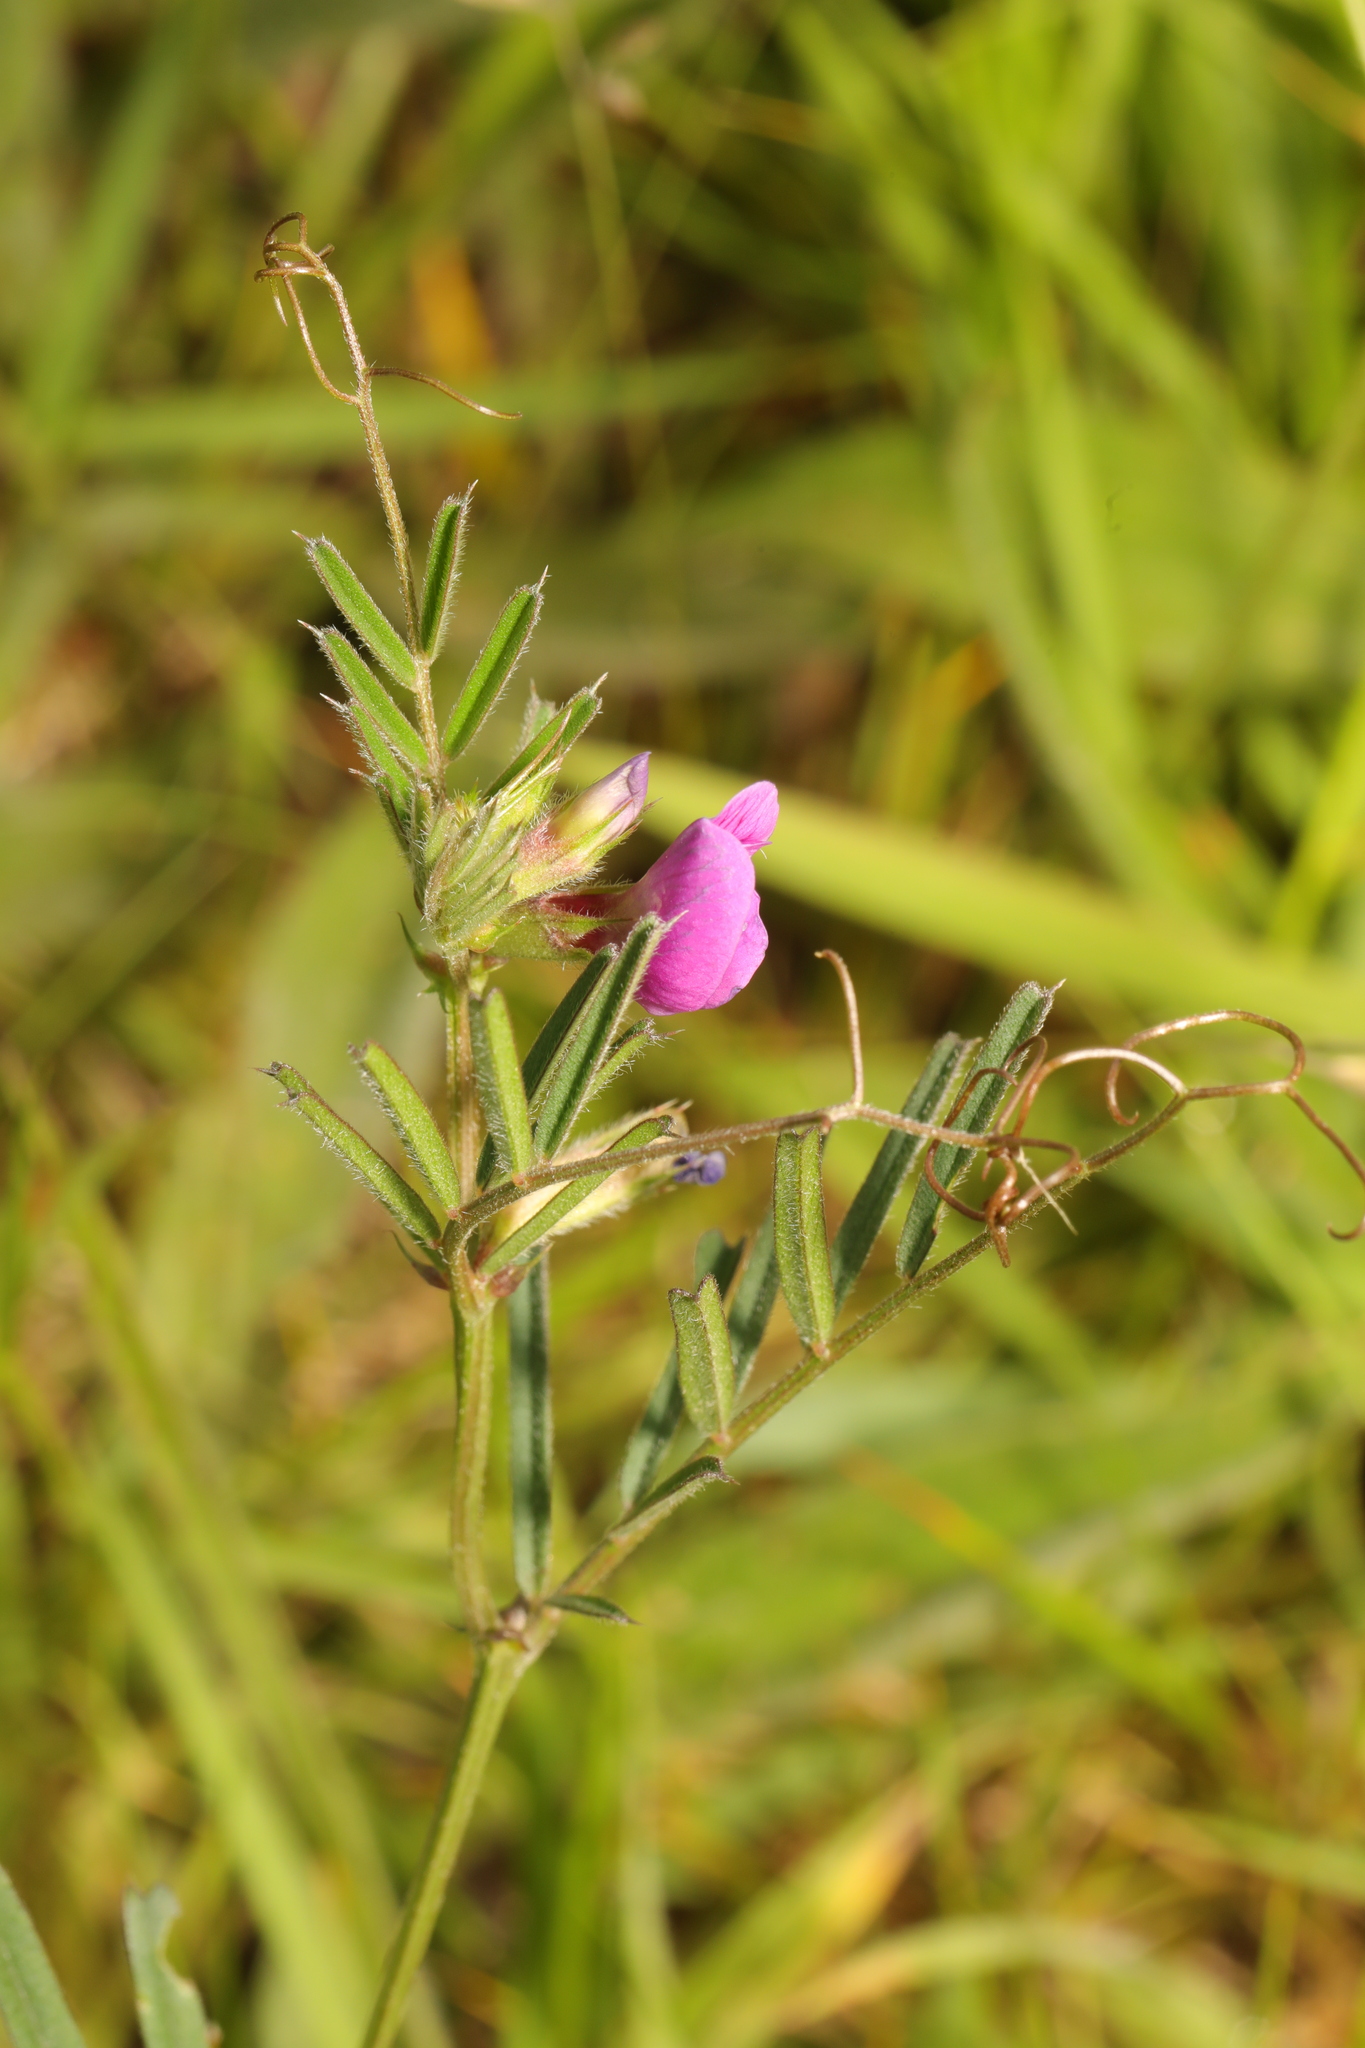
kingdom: Plantae
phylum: Tracheophyta
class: Magnoliopsida
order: Fabales
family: Fabaceae
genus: Vicia
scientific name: Vicia sativa
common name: Garden vetch
